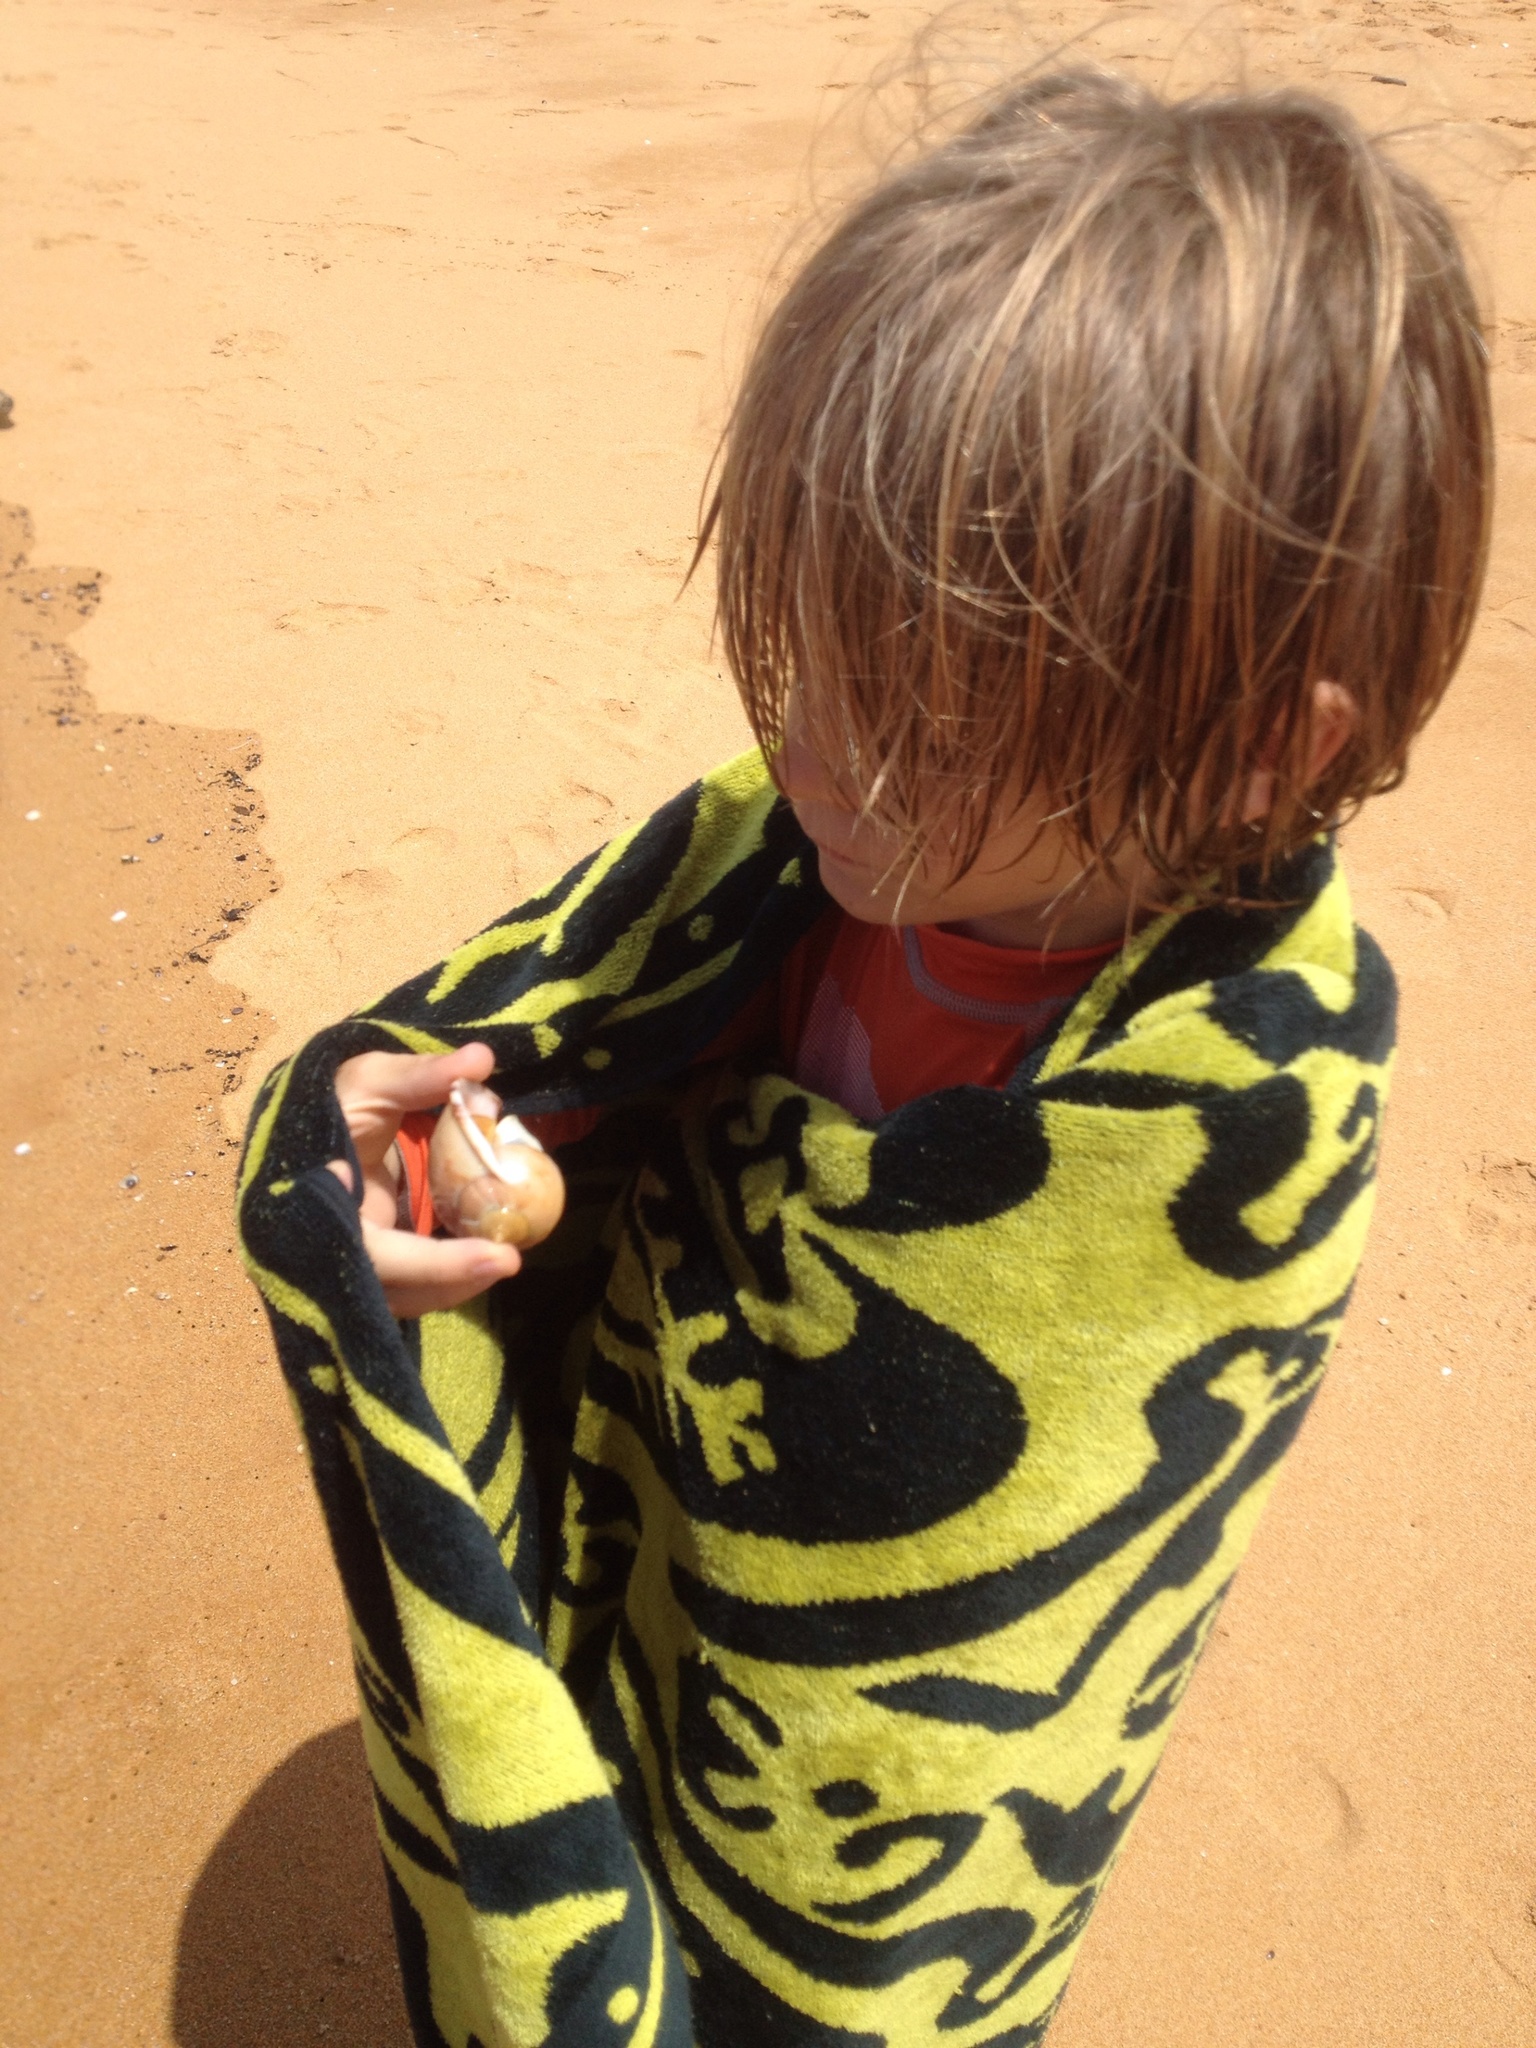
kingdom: Animalia
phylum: Mollusca
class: Gastropoda
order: Littorinimorpha
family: Cassidae
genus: Semicassis
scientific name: Semicassis pyrum
